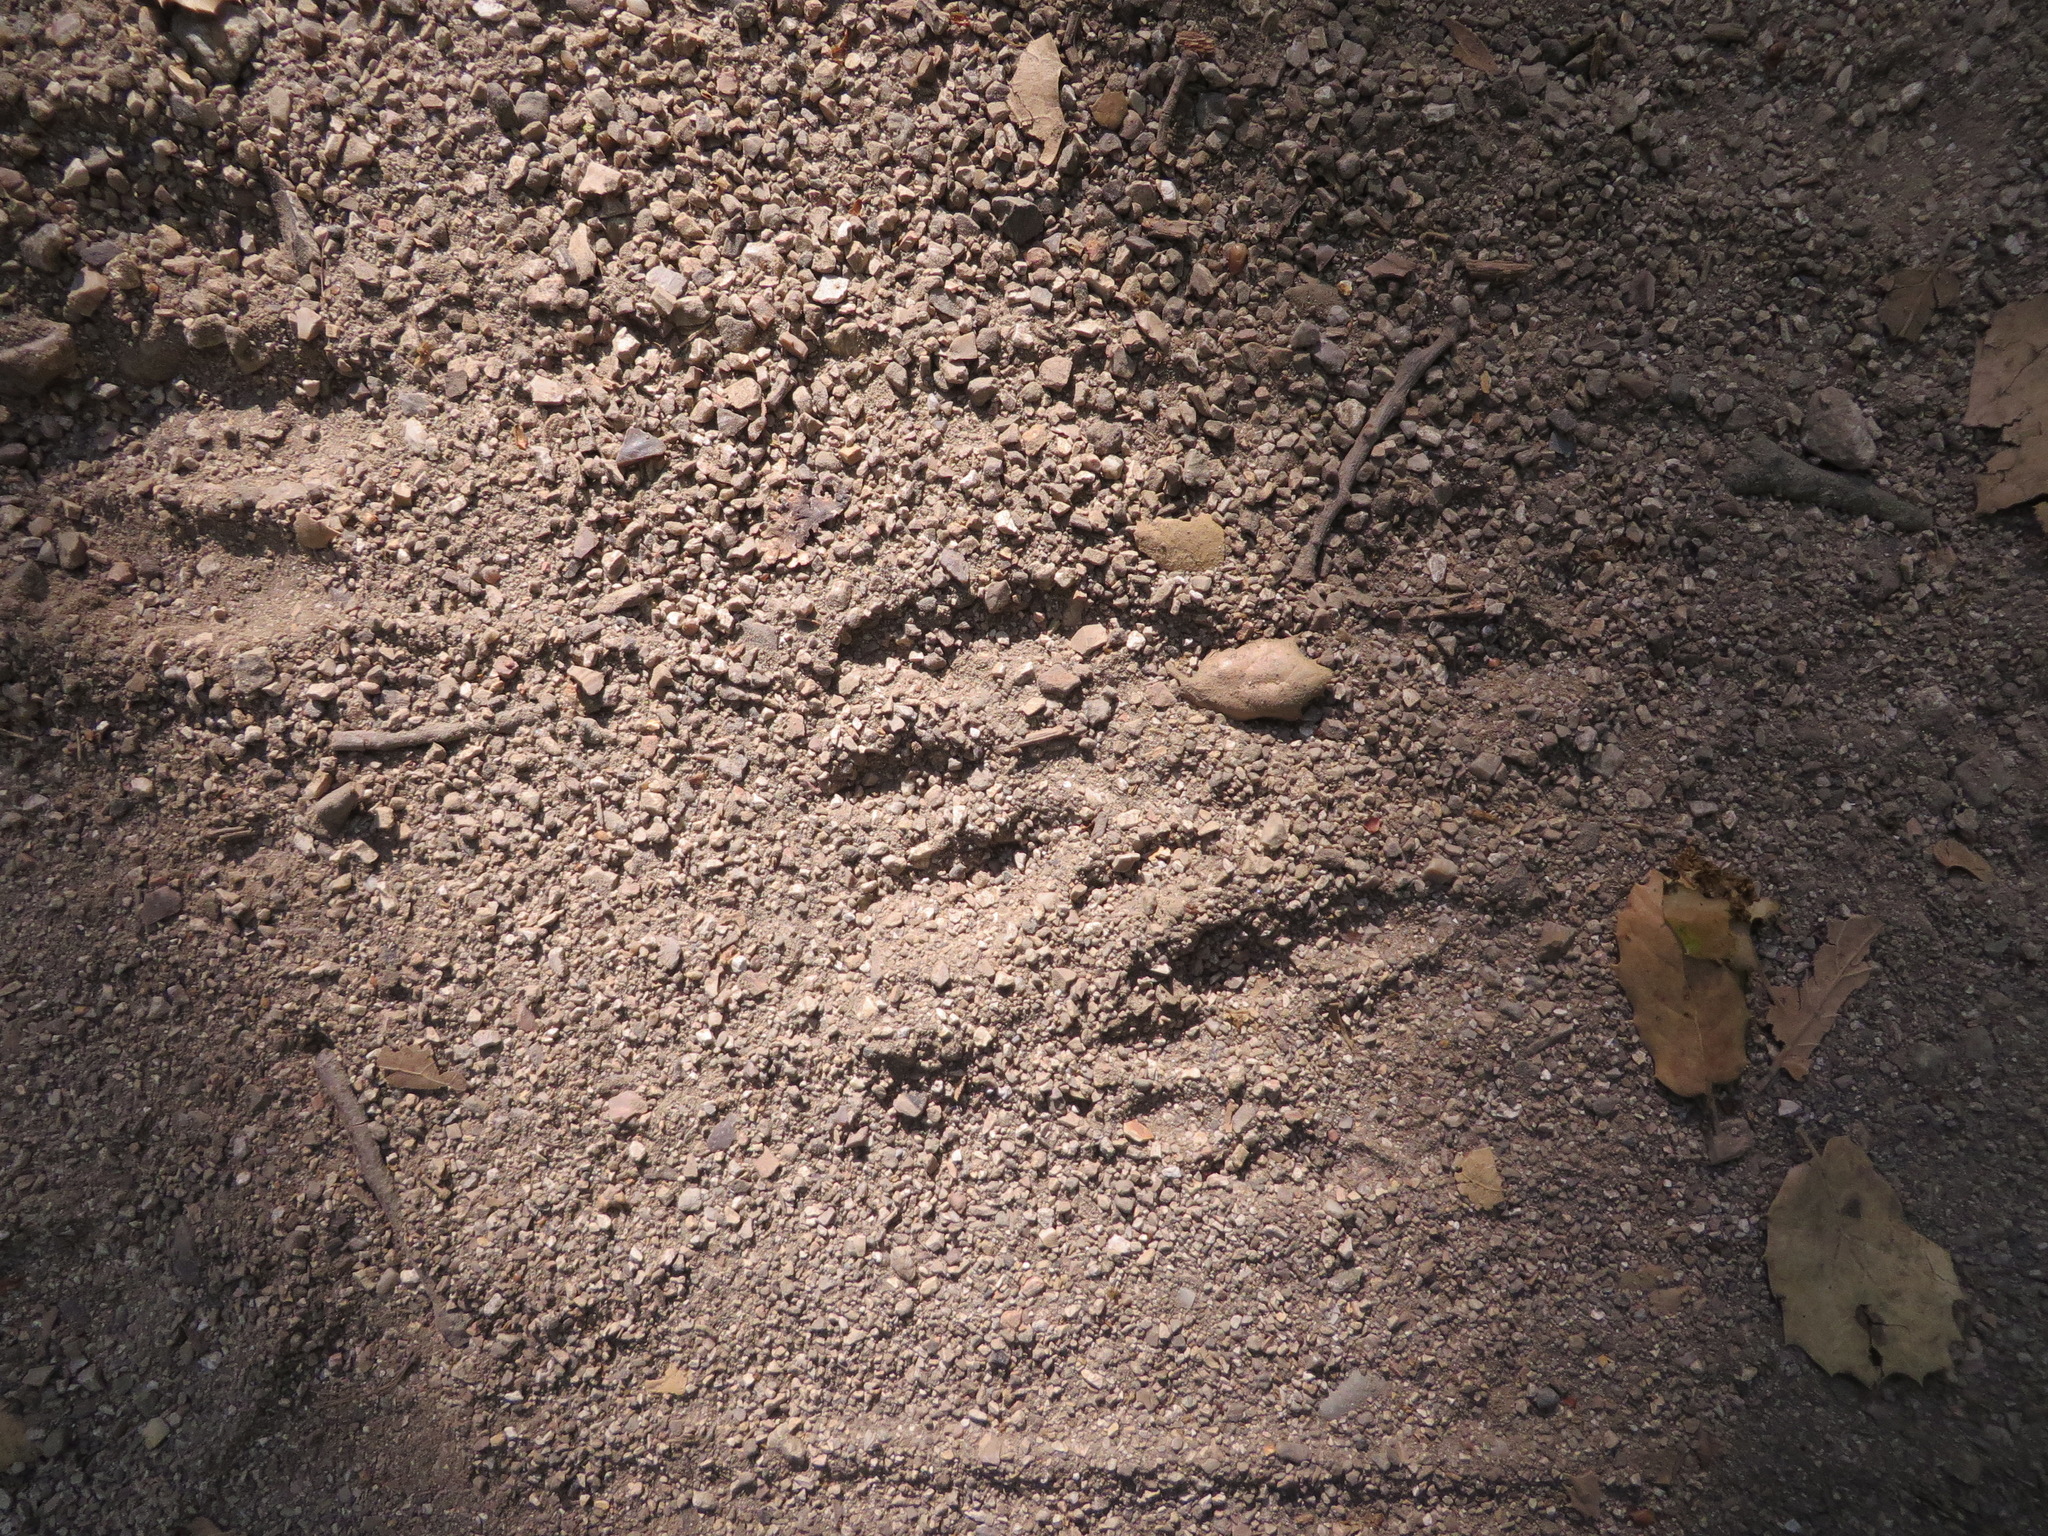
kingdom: Animalia
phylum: Chordata
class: Mammalia
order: Carnivora
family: Procyonidae
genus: Procyon
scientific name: Procyon lotor
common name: Raccoon
